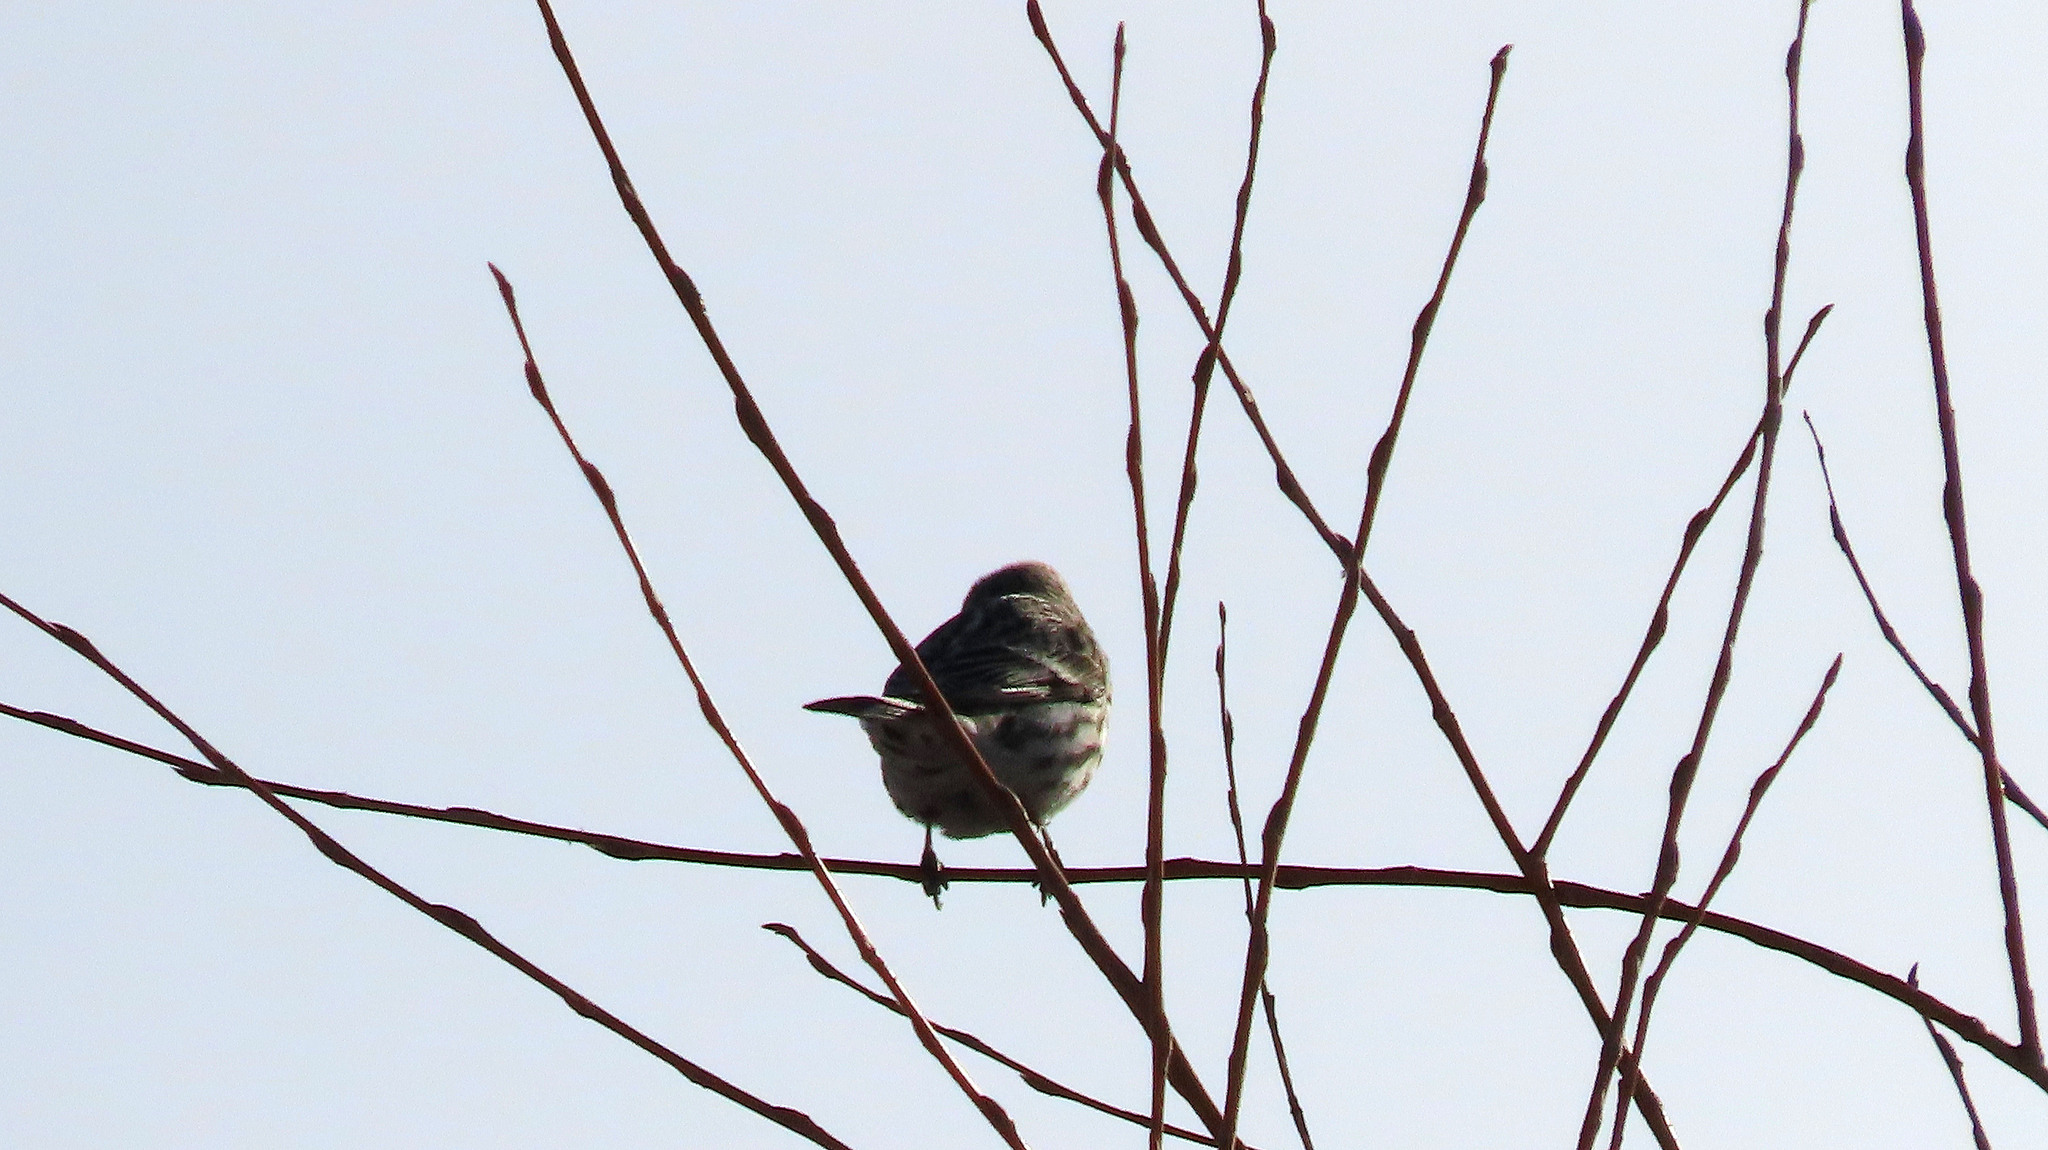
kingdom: Animalia
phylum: Chordata
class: Aves
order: Passeriformes
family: Fringillidae
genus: Acanthis
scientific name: Acanthis flammea
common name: Common redpoll
